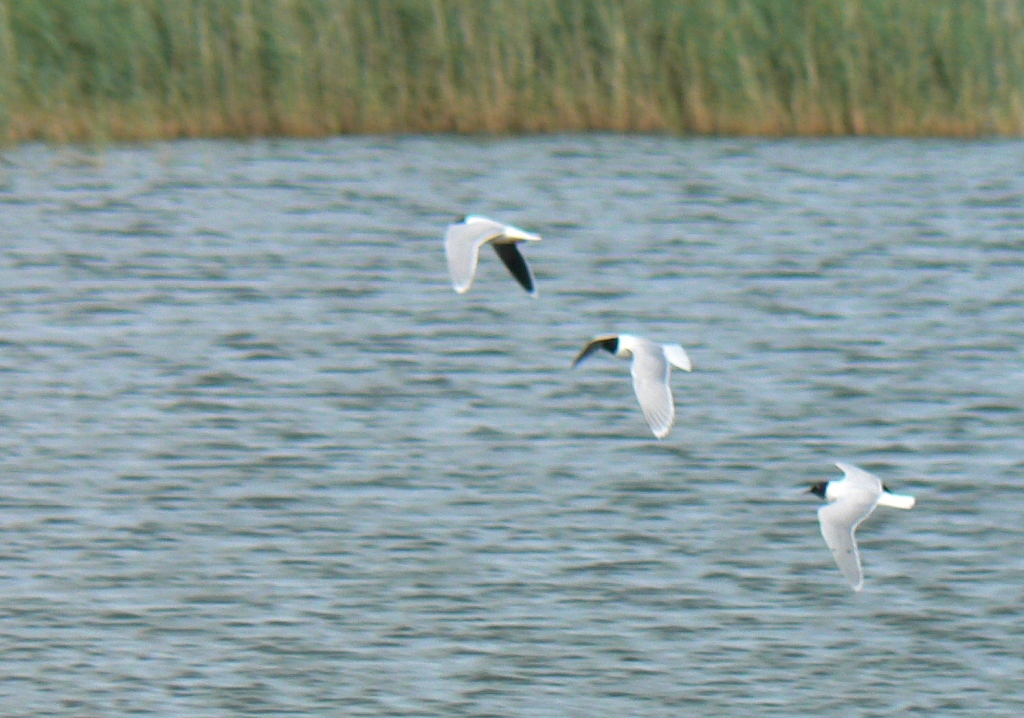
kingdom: Animalia
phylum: Chordata
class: Aves
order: Charadriiformes
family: Laridae
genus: Hydrocoloeus
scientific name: Hydrocoloeus minutus
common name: Little gull
